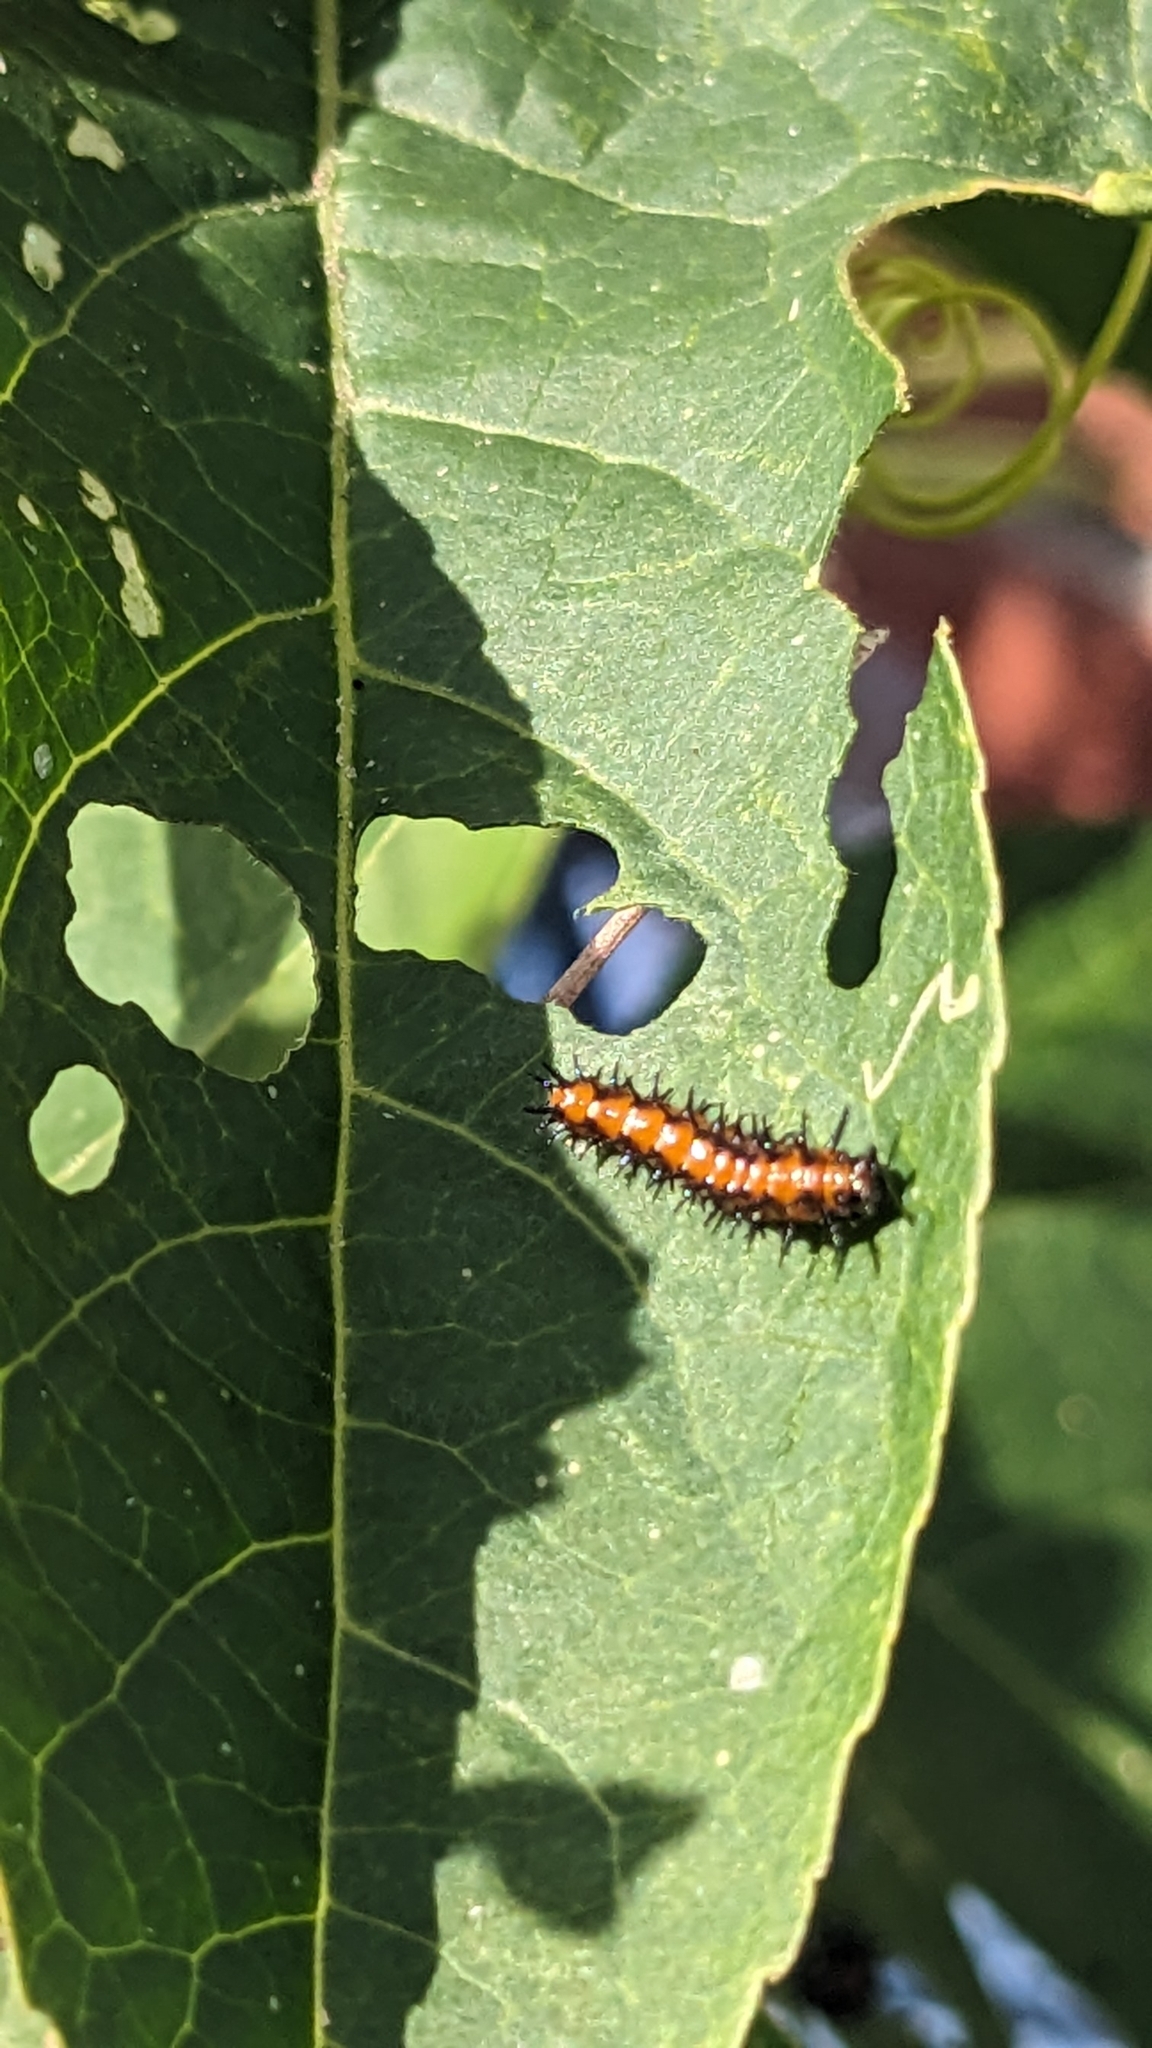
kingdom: Animalia
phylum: Arthropoda
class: Insecta
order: Lepidoptera
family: Nymphalidae
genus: Dione
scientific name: Dione vanillae
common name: Gulf fritillary
